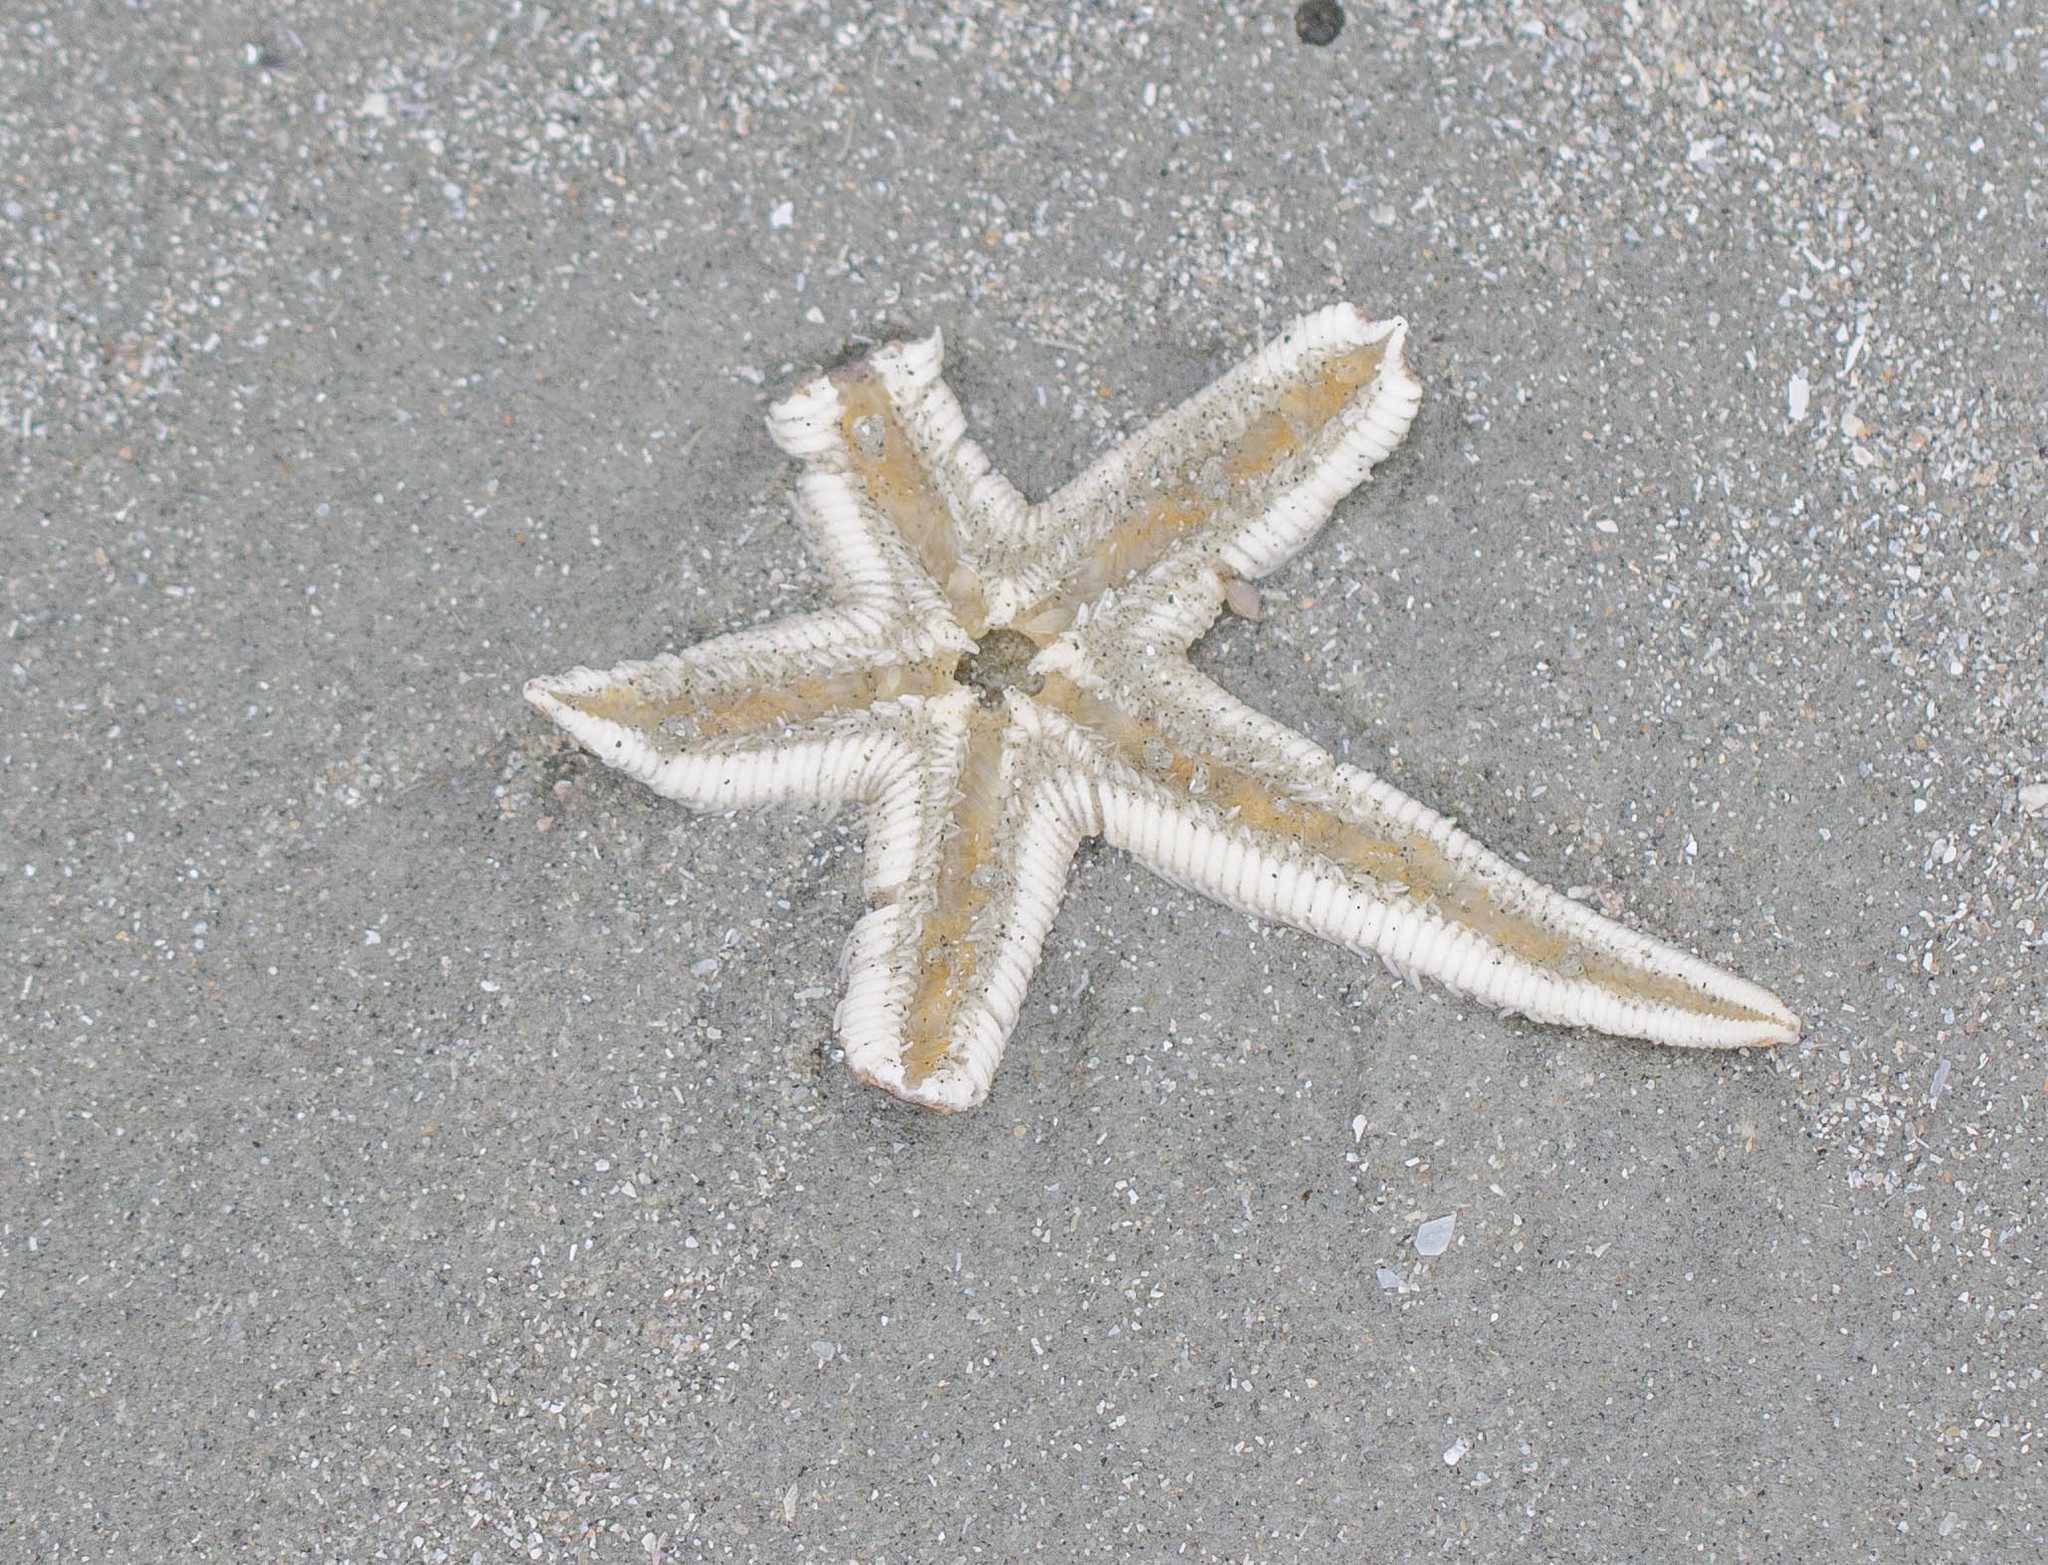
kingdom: Animalia
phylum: Echinodermata
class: Asteroidea
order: Paxillosida
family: Luidiidae
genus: Luidia
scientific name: Luidia clathrata
